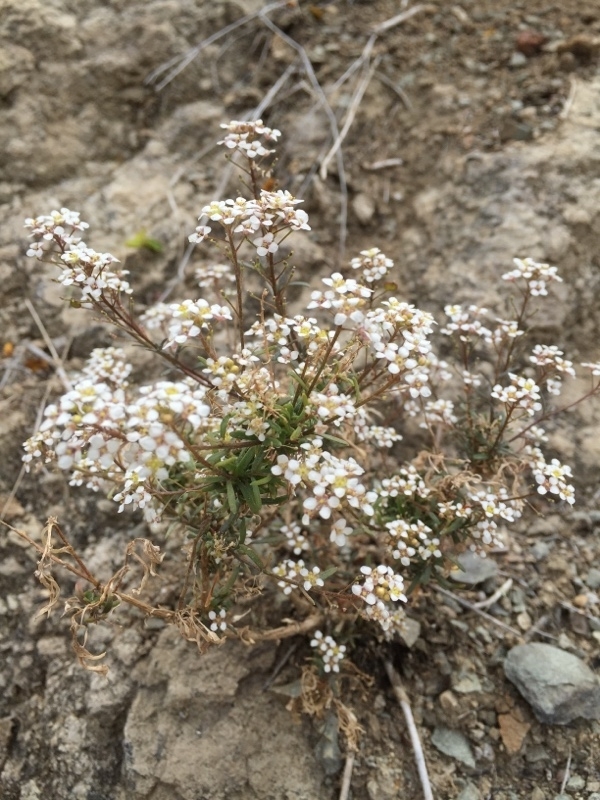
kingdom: Plantae
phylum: Tracheophyta
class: Magnoliopsida
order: Brassicales
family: Brassicaceae
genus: Lobularia
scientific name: Lobularia canariensis
